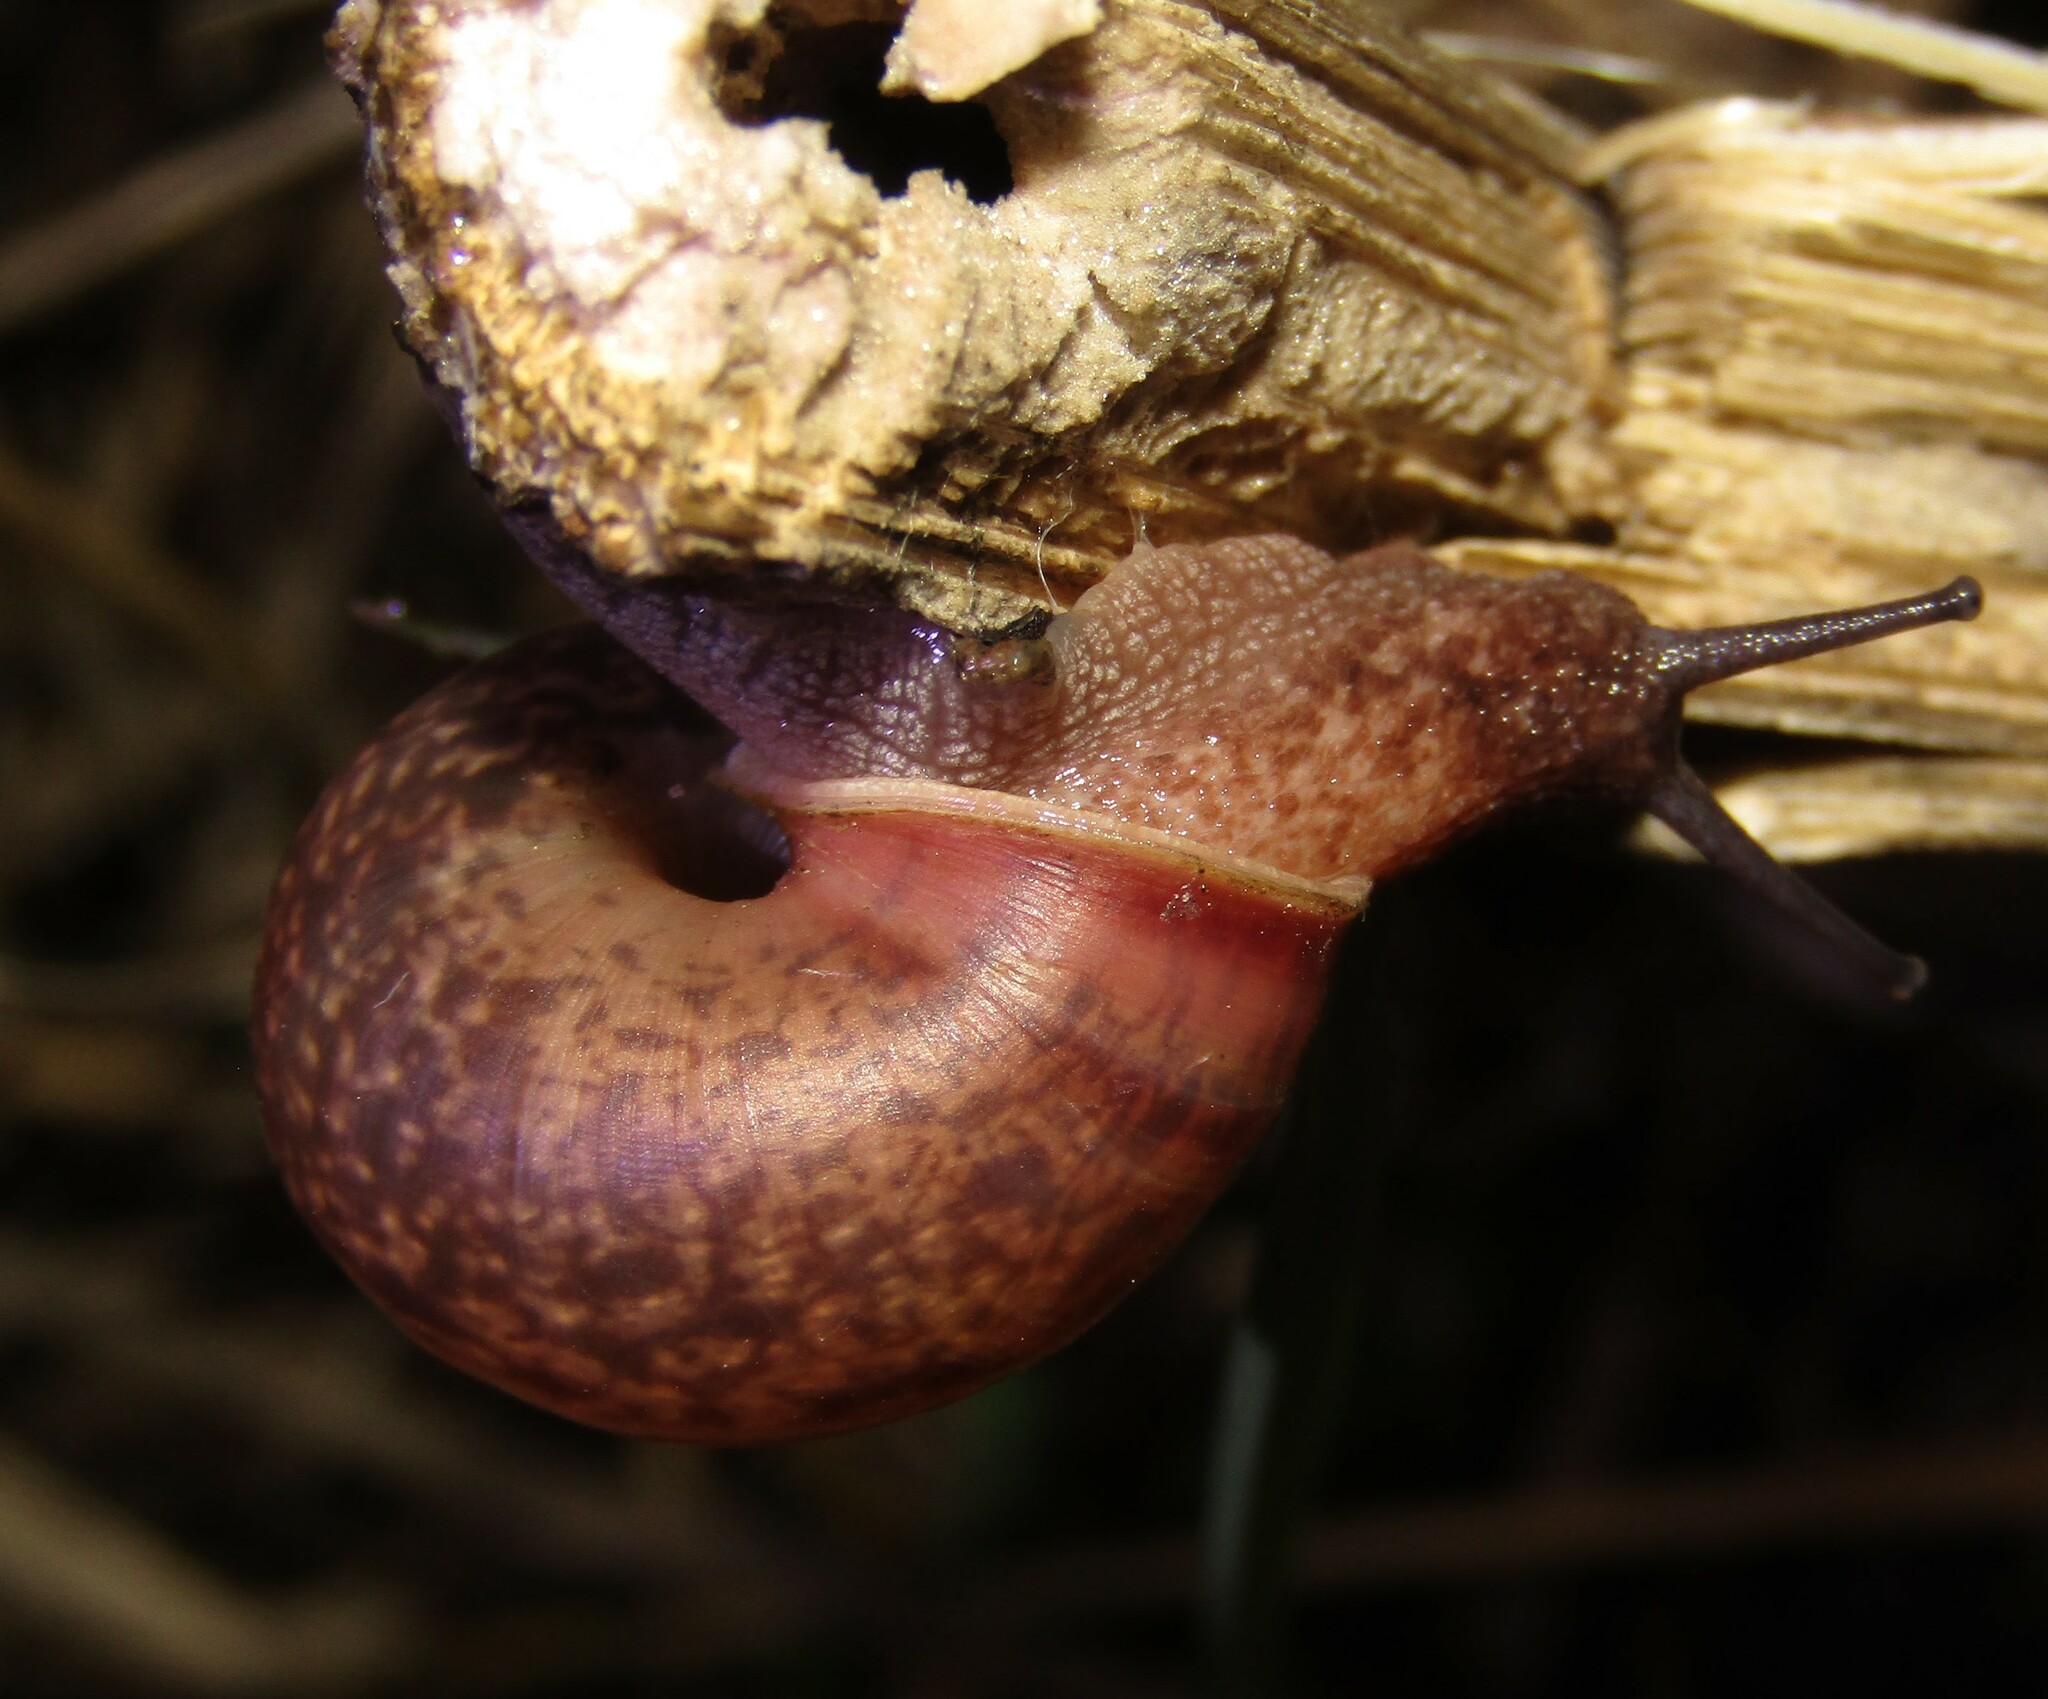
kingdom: Animalia
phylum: Mollusca
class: Gastropoda
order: Stylommatophora
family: Camaenidae
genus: Fruticicola
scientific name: Fruticicola fruticum
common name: Bush snail
